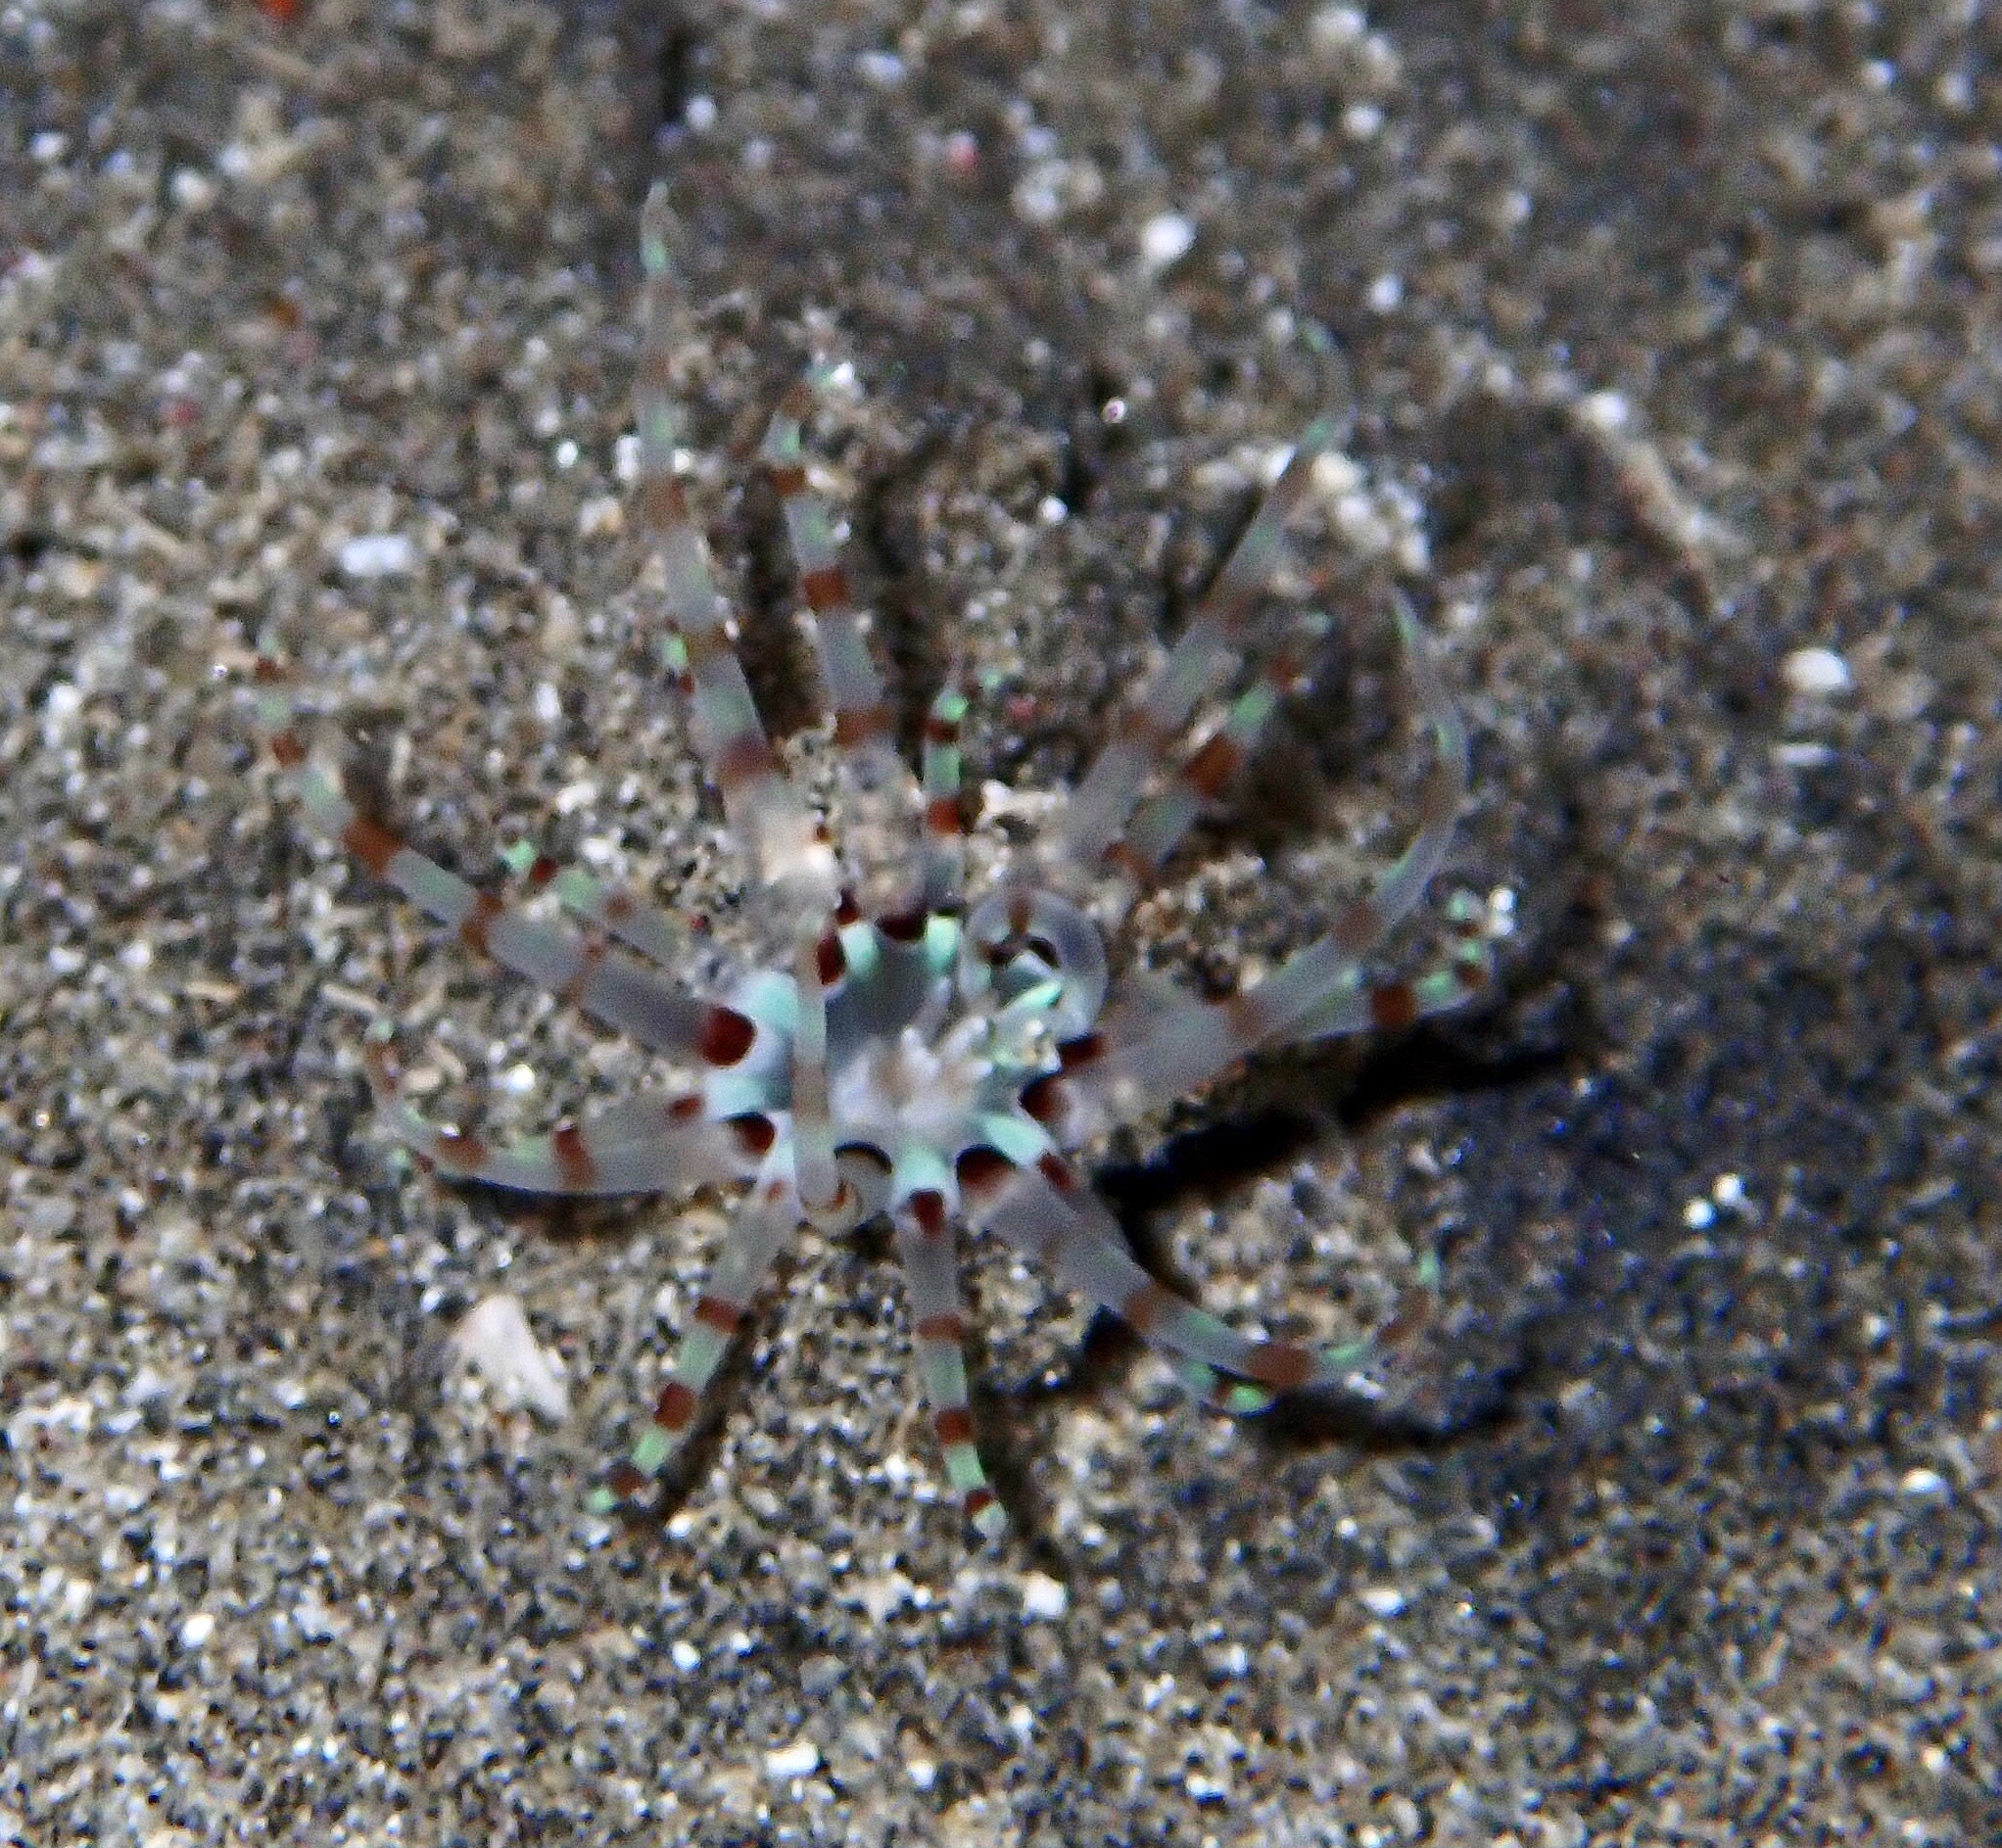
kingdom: Animalia
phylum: Cnidaria
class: Anthozoa
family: Arachnactidae
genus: Arachnanthus
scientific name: Arachnanthus lilith
